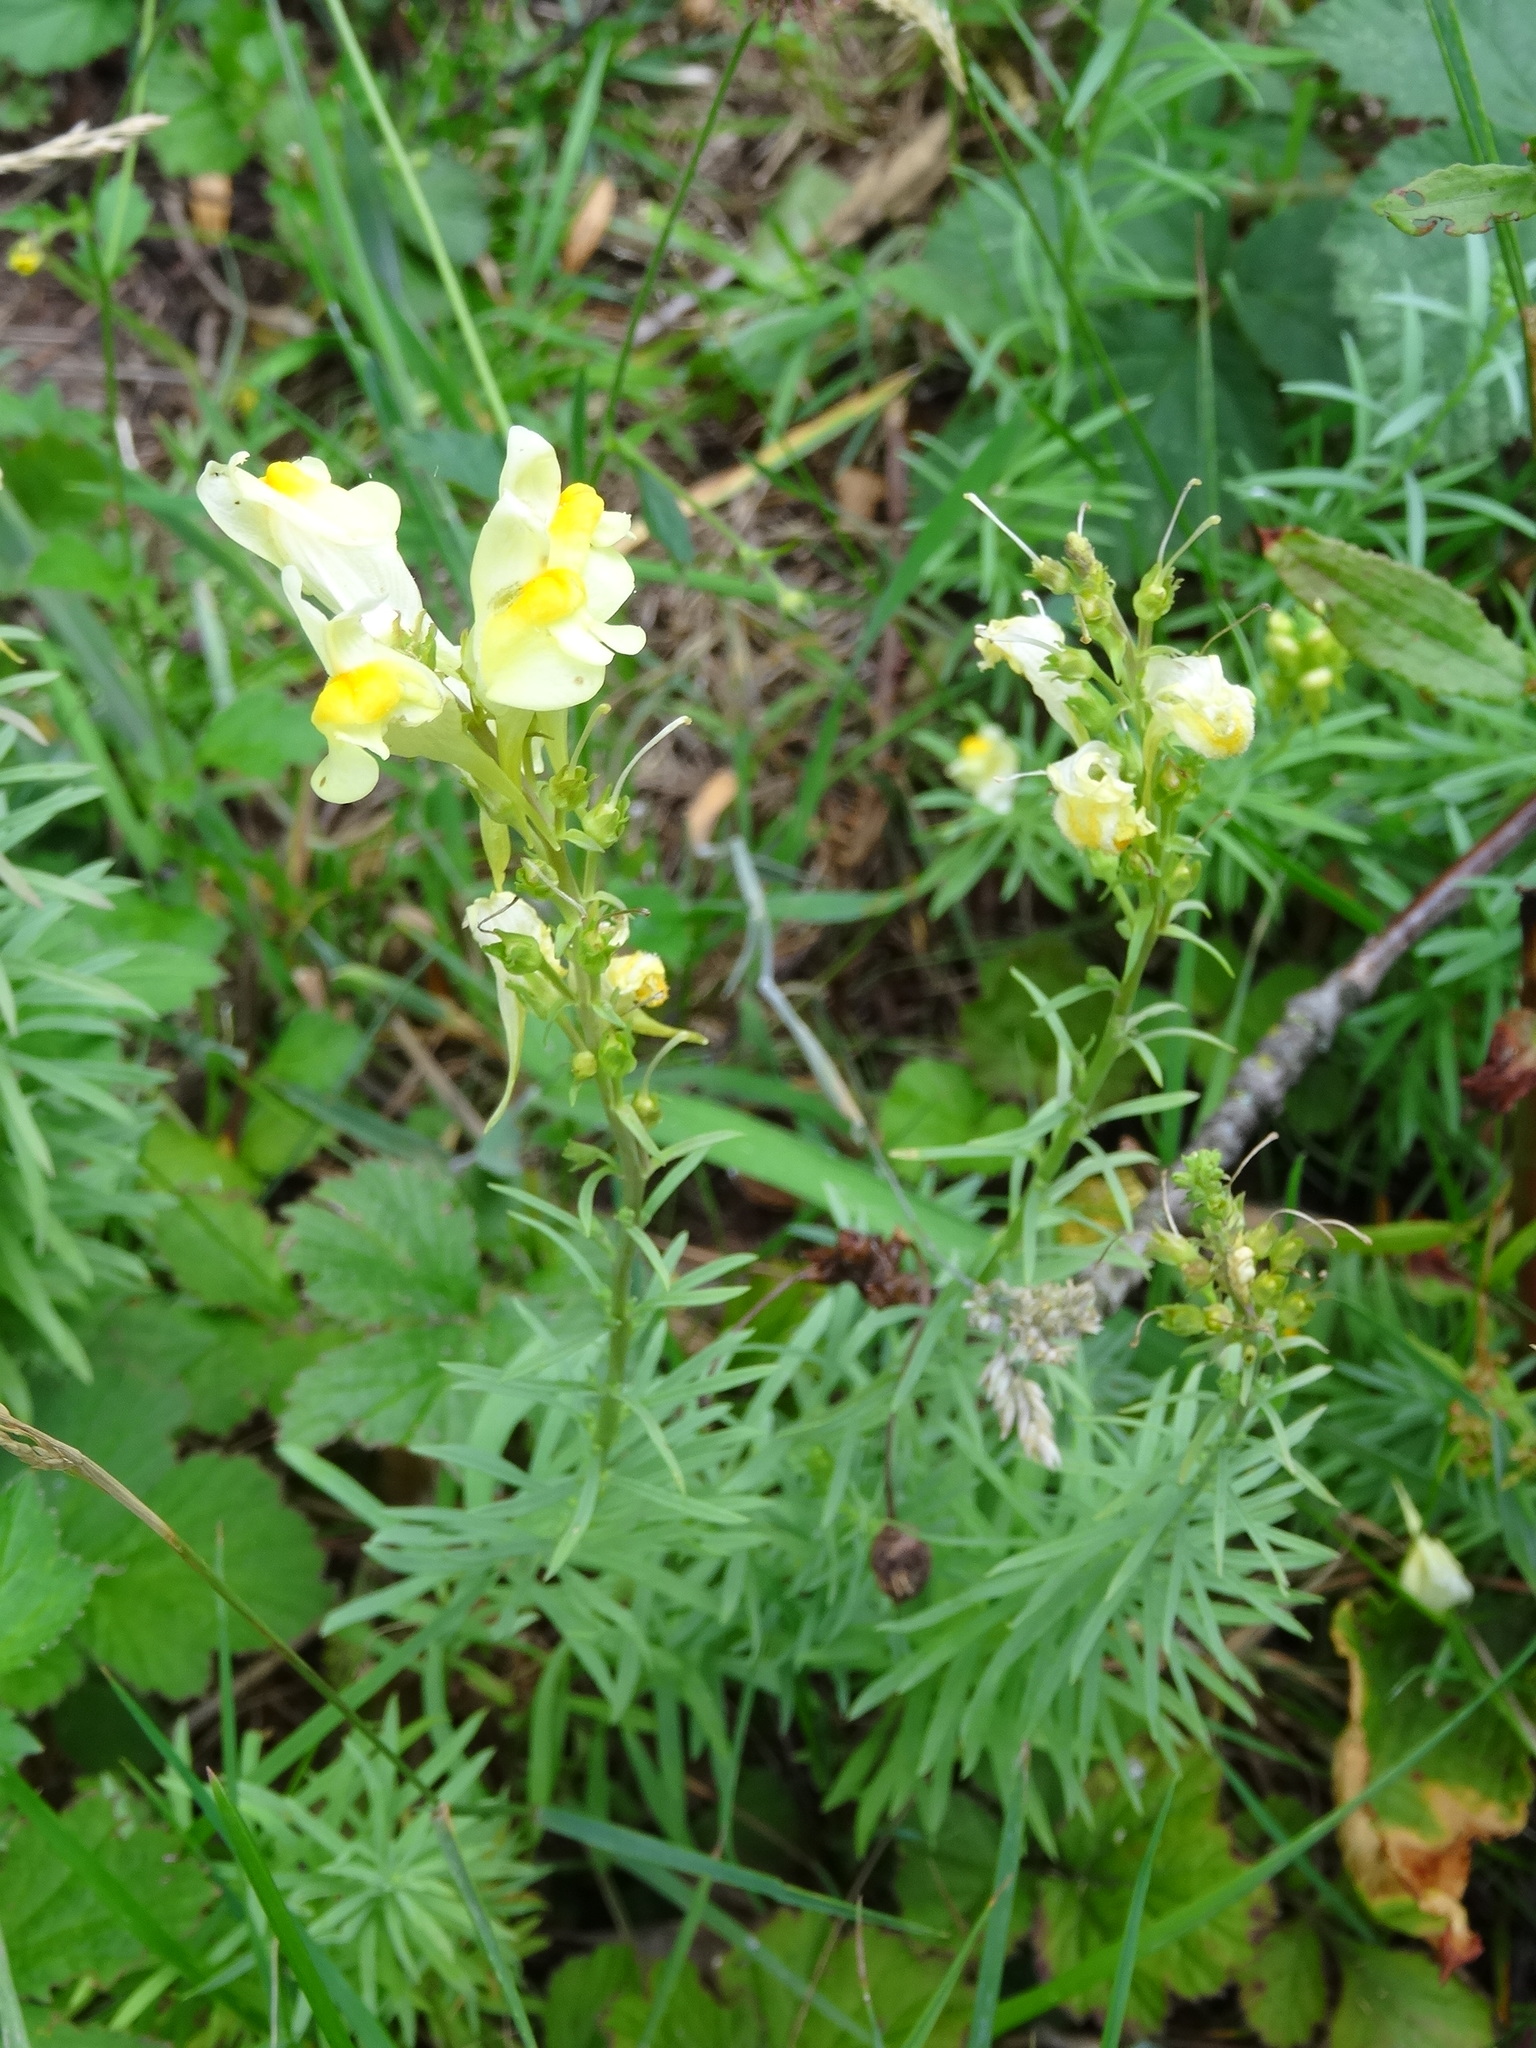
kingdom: Plantae
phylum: Tracheophyta
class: Magnoliopsida
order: Lamiales
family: Plantaginaceae
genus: Linaria
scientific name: Linaria vulgaris
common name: Butter and eggs
